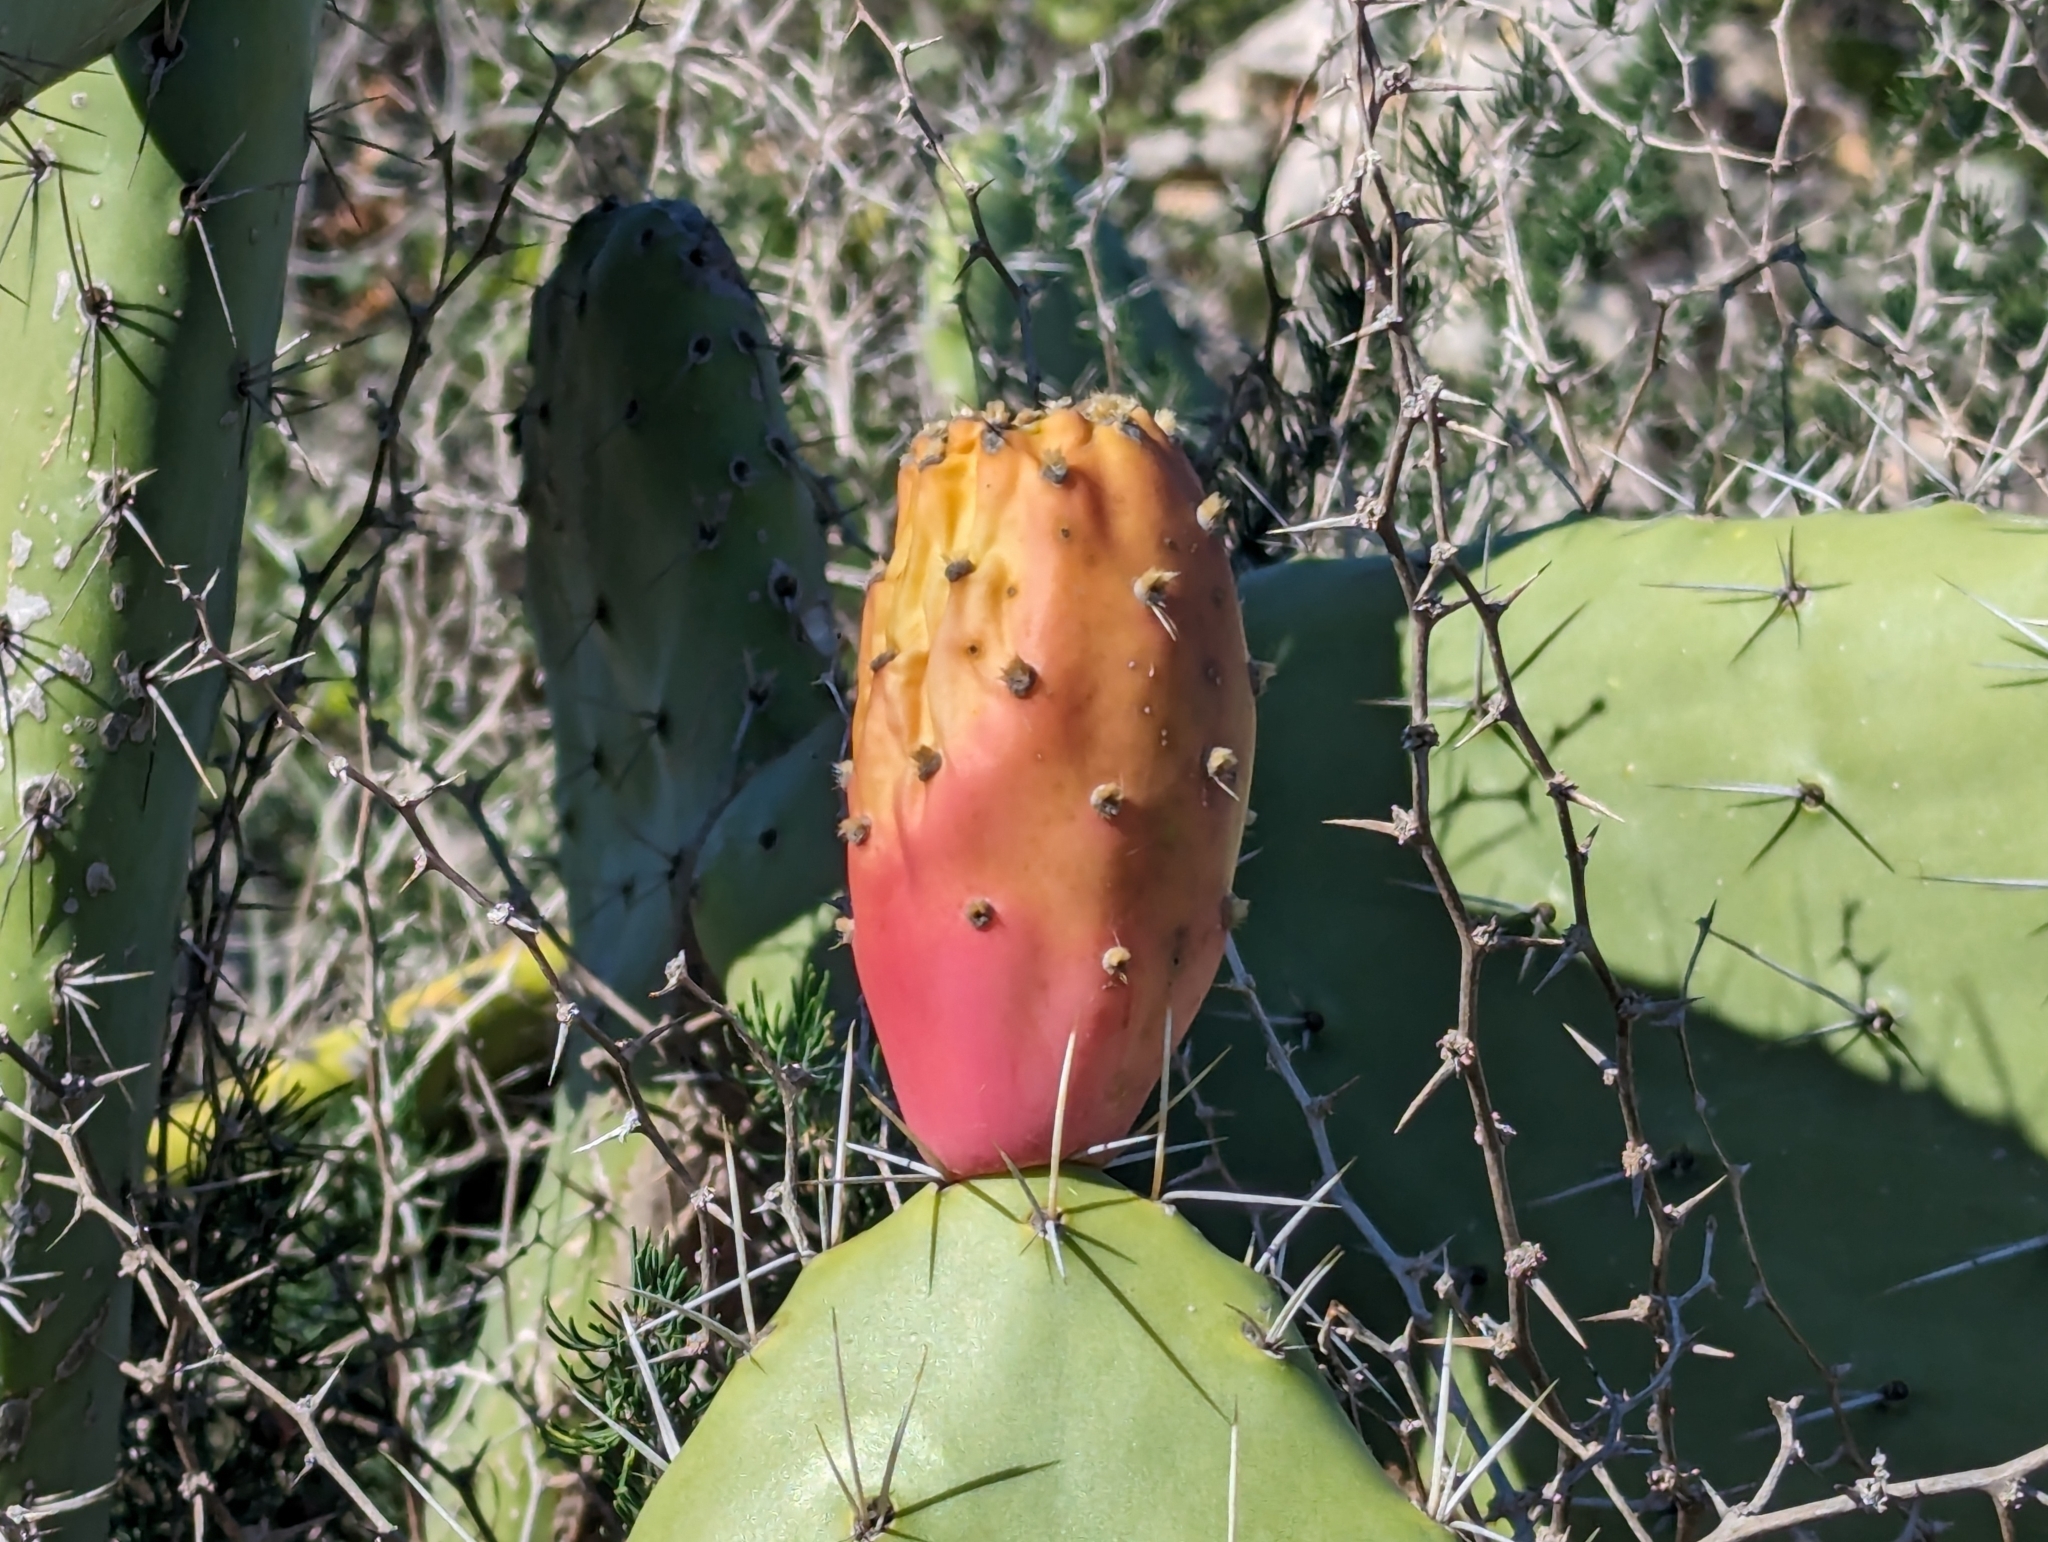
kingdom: Plantae
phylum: Tracheophyta
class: Magnoliopsida
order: Caryophyllales
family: Cactaceae
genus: Opuntia
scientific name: Opuntia ficus-indica
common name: Barbary fig
